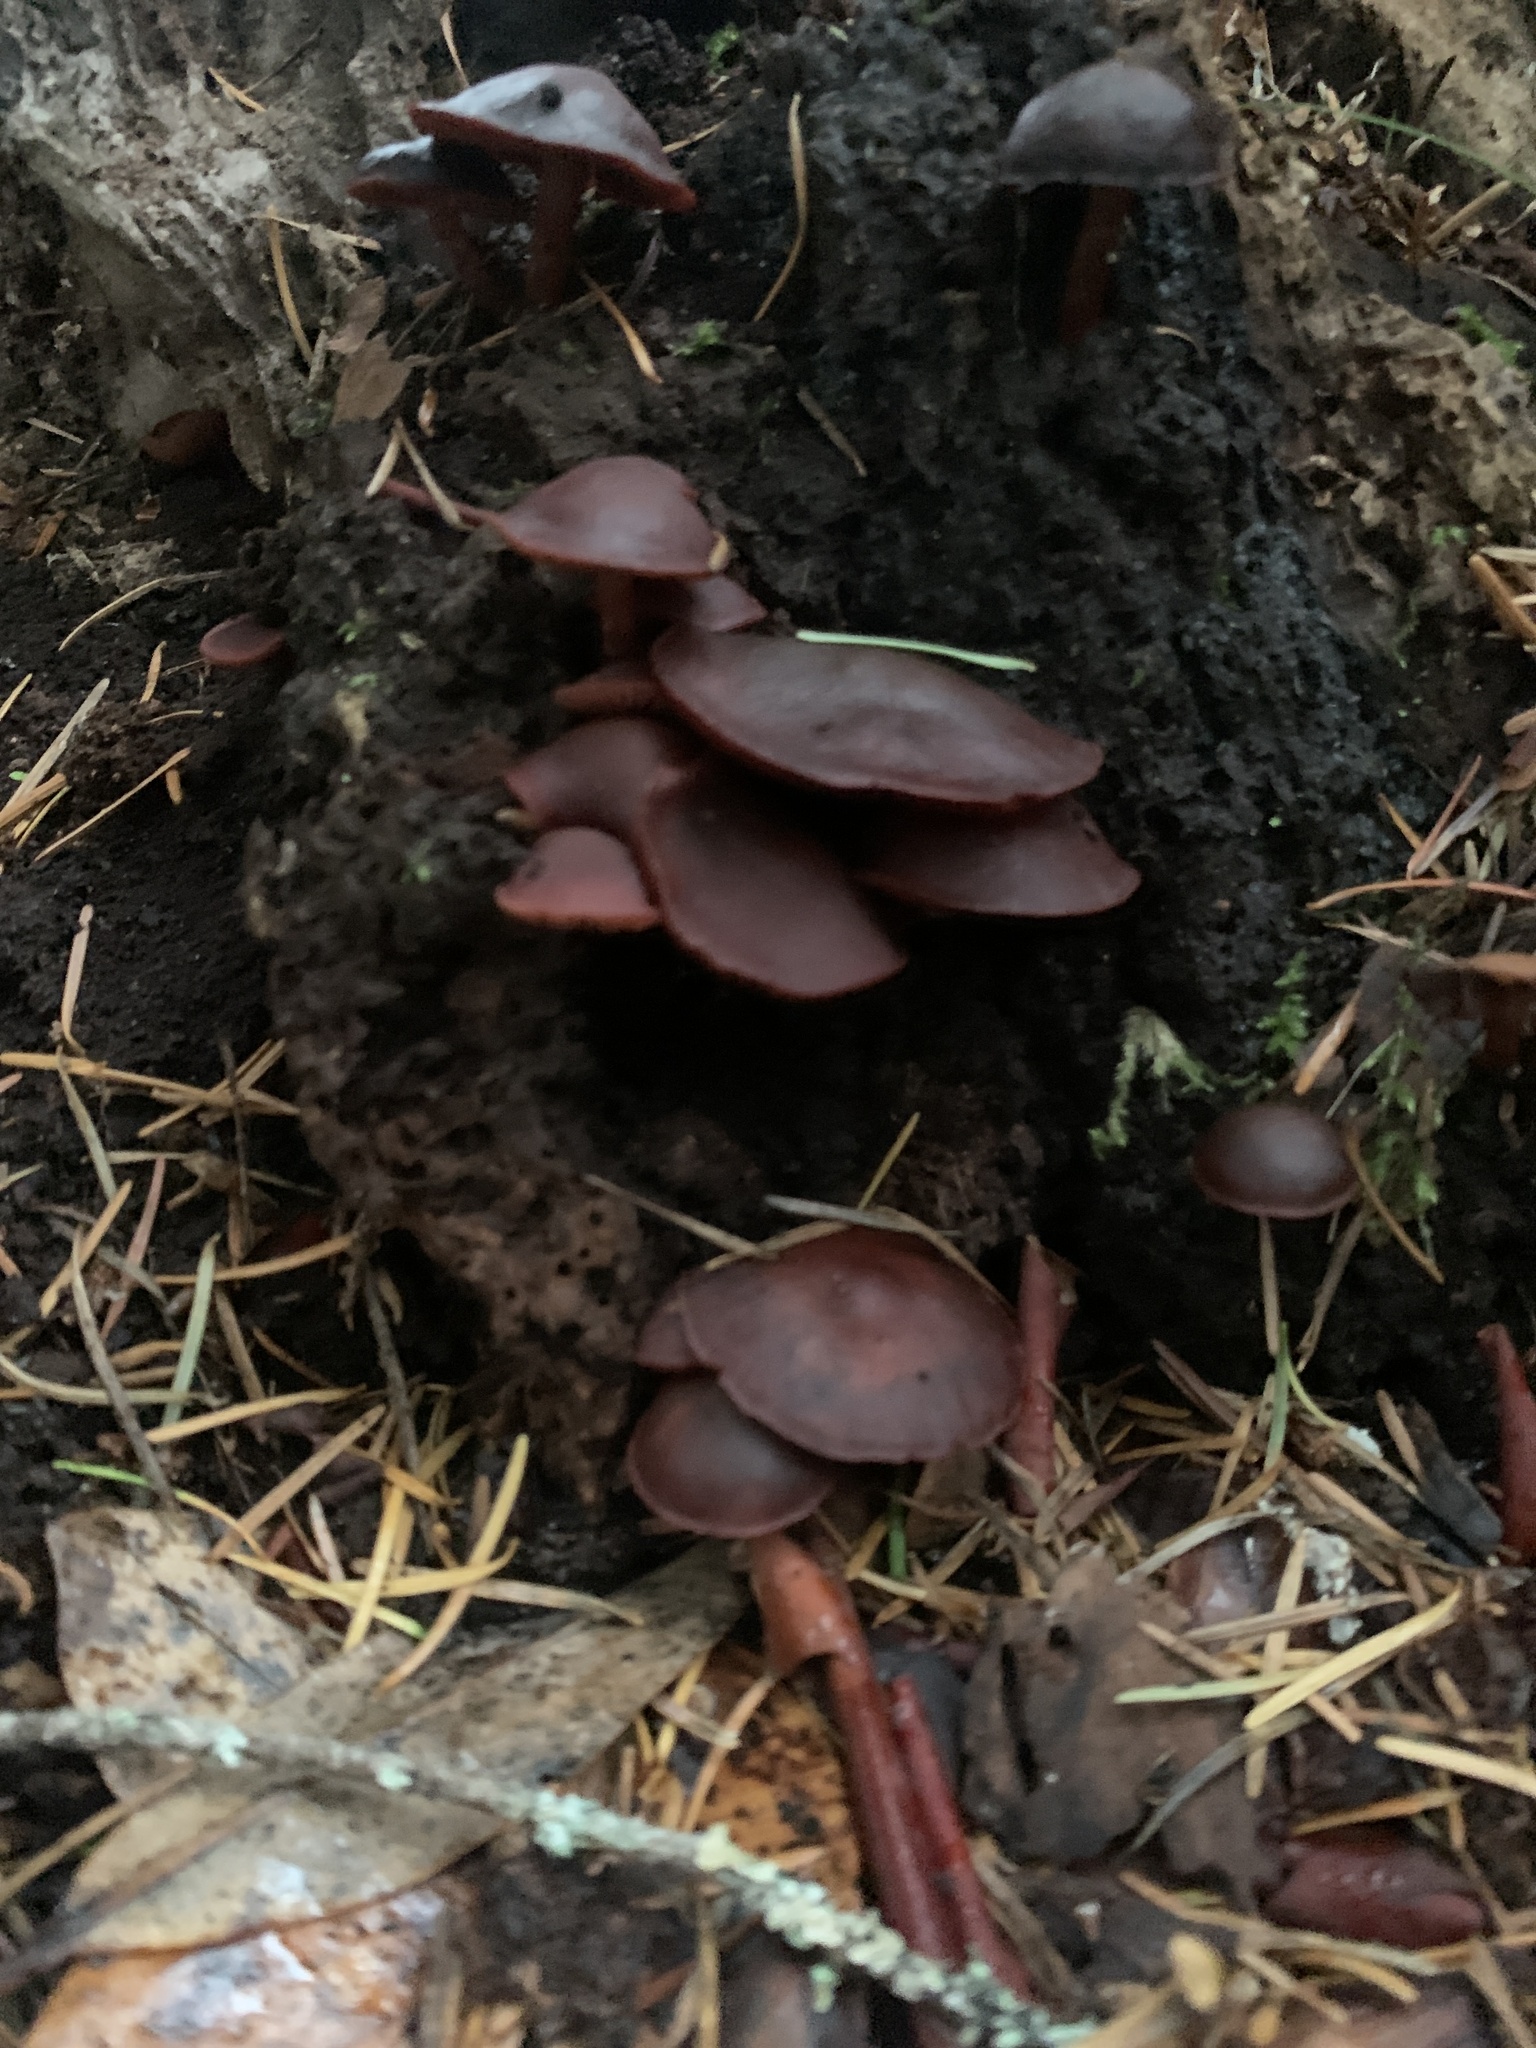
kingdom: Fungi
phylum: Basidiomycota
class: Agaricomycetes
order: Agaricales
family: Tubariaceae
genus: Tubaria
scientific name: Tubaria punicea
